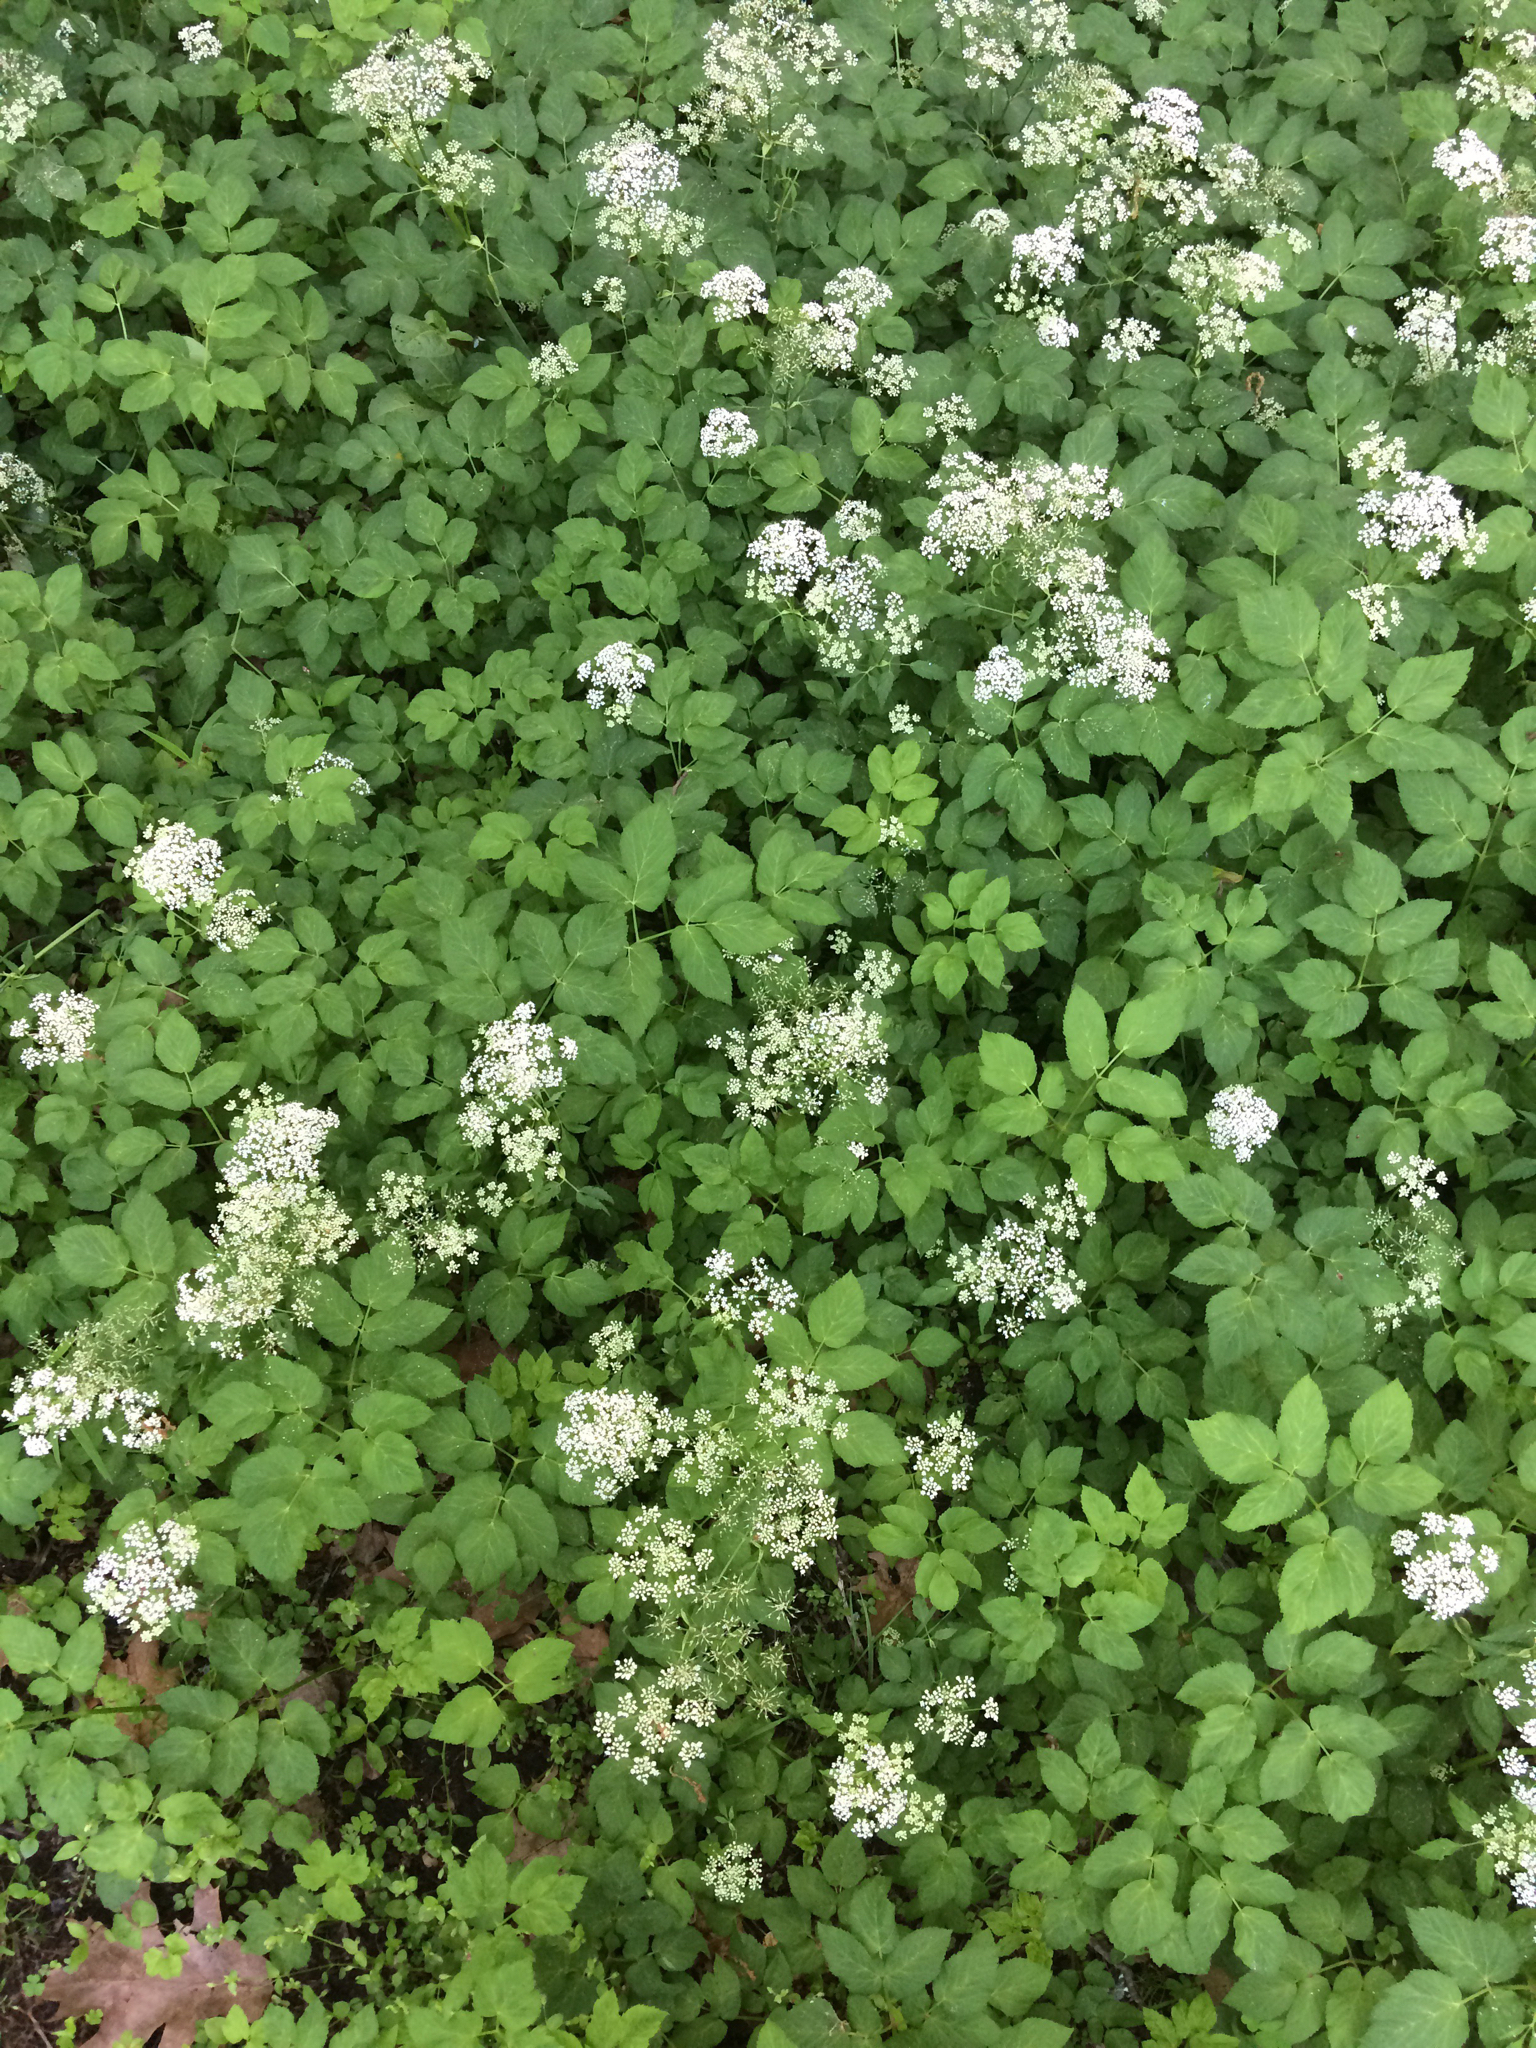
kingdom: Plantae
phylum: Tracheophyta
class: Magnoliopsida
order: Apiales
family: Apiaceae
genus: Aegopodium
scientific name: Aegopodium podagraria
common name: Ground-elder
